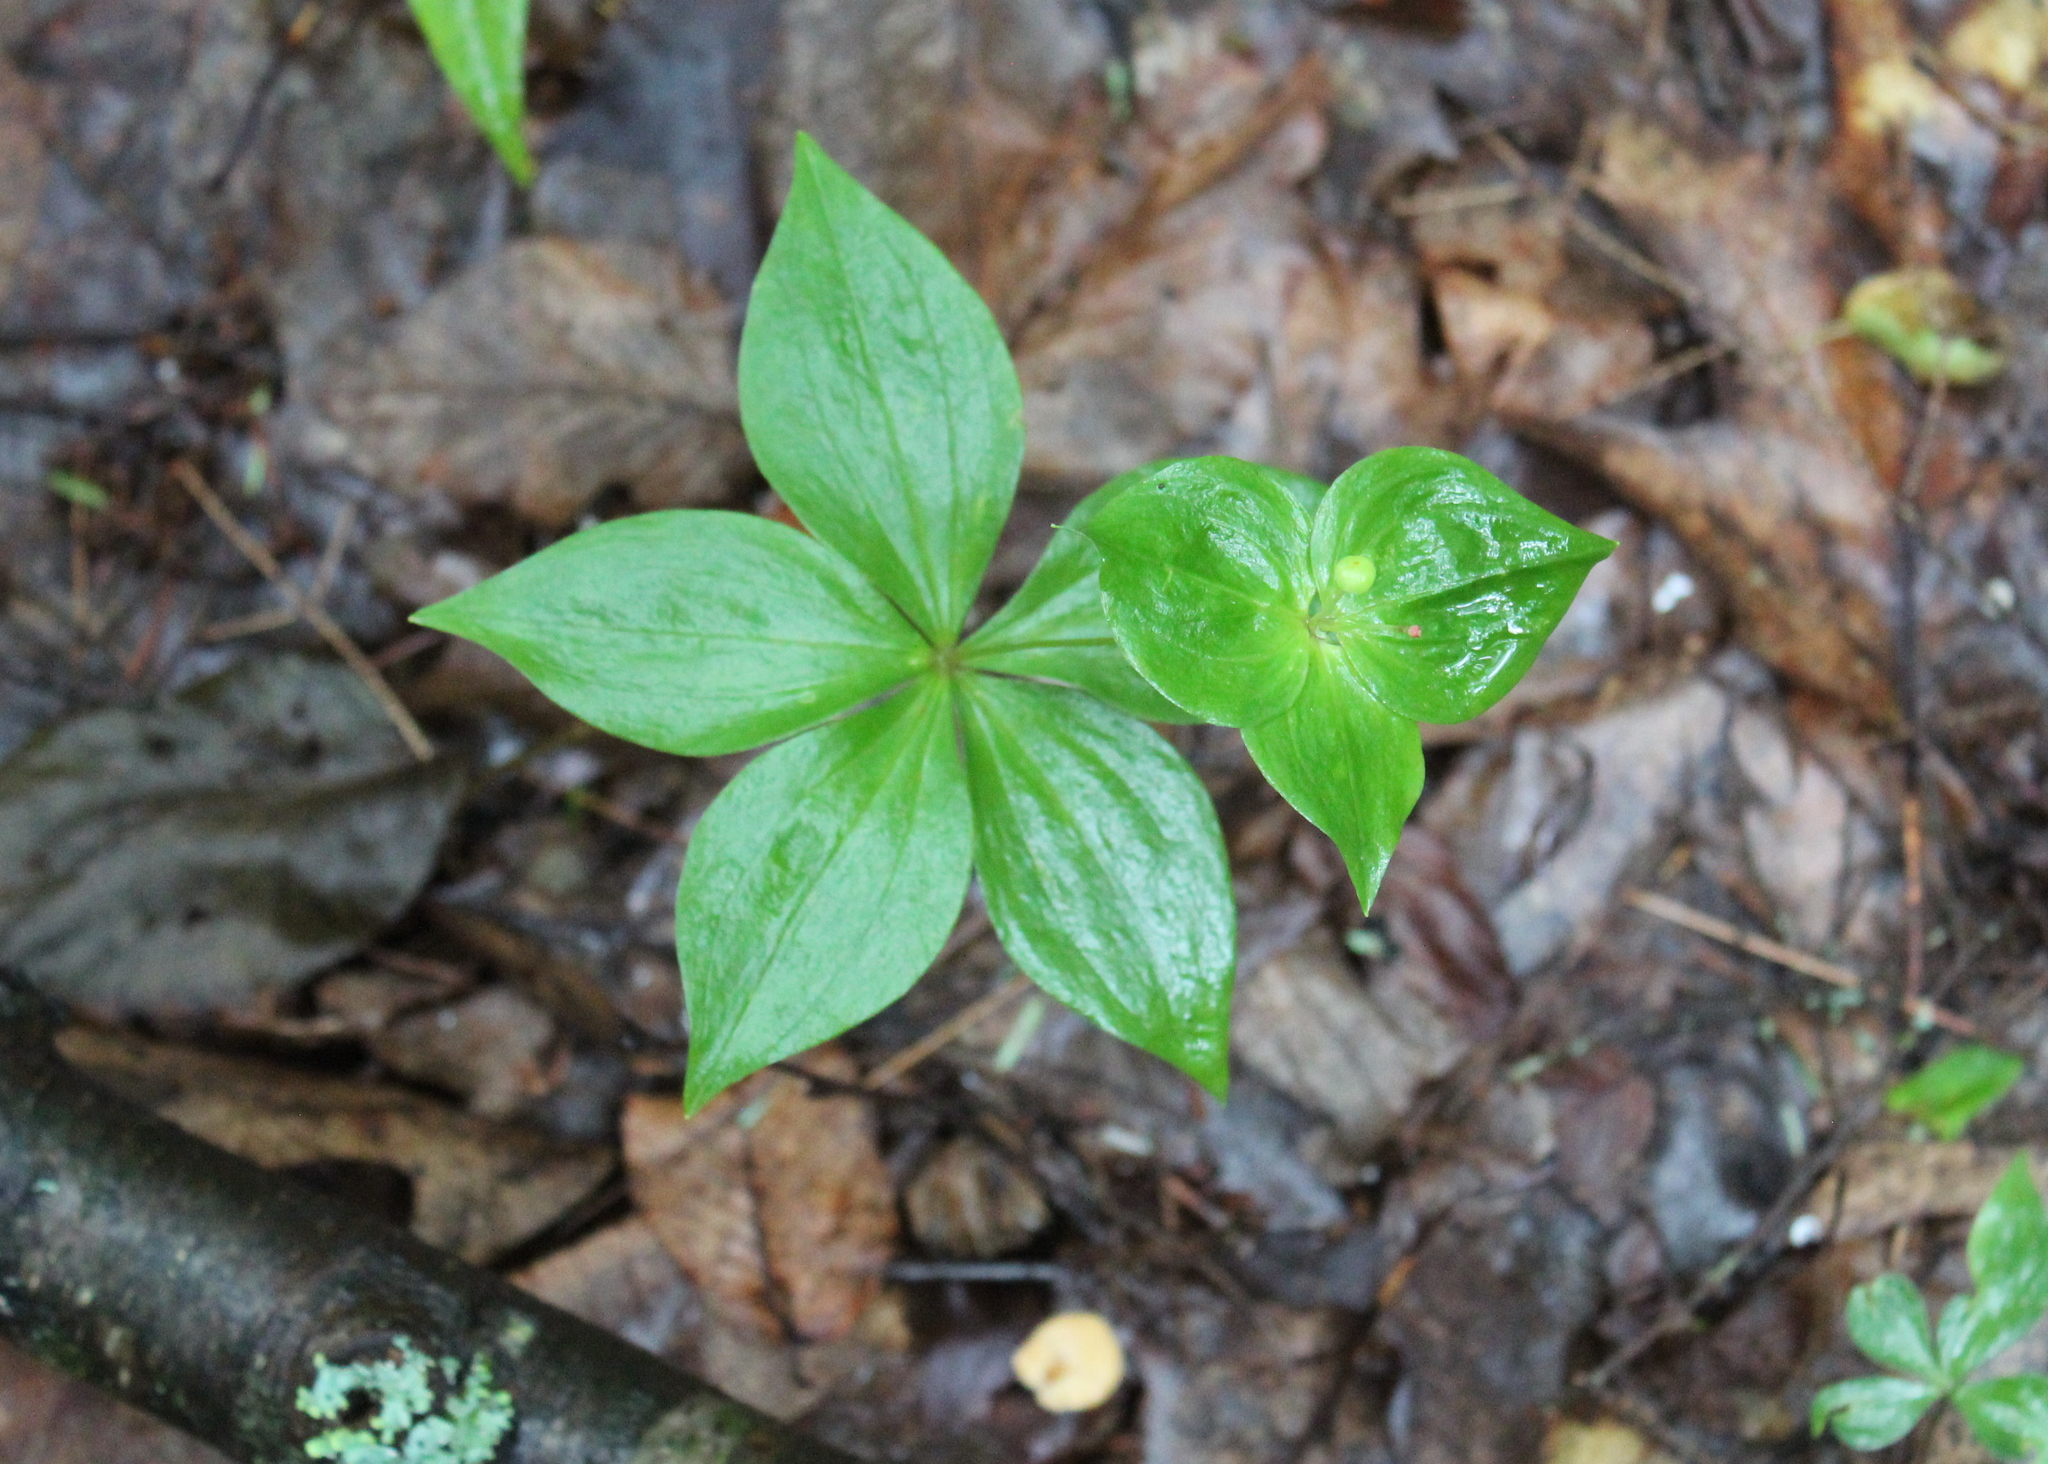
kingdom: Plantae
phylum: Tracheophyta
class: Liliopsida
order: Liliales
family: Liliaceae
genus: Medeola
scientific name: Medeola virginiana
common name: Indian cucumber-root
